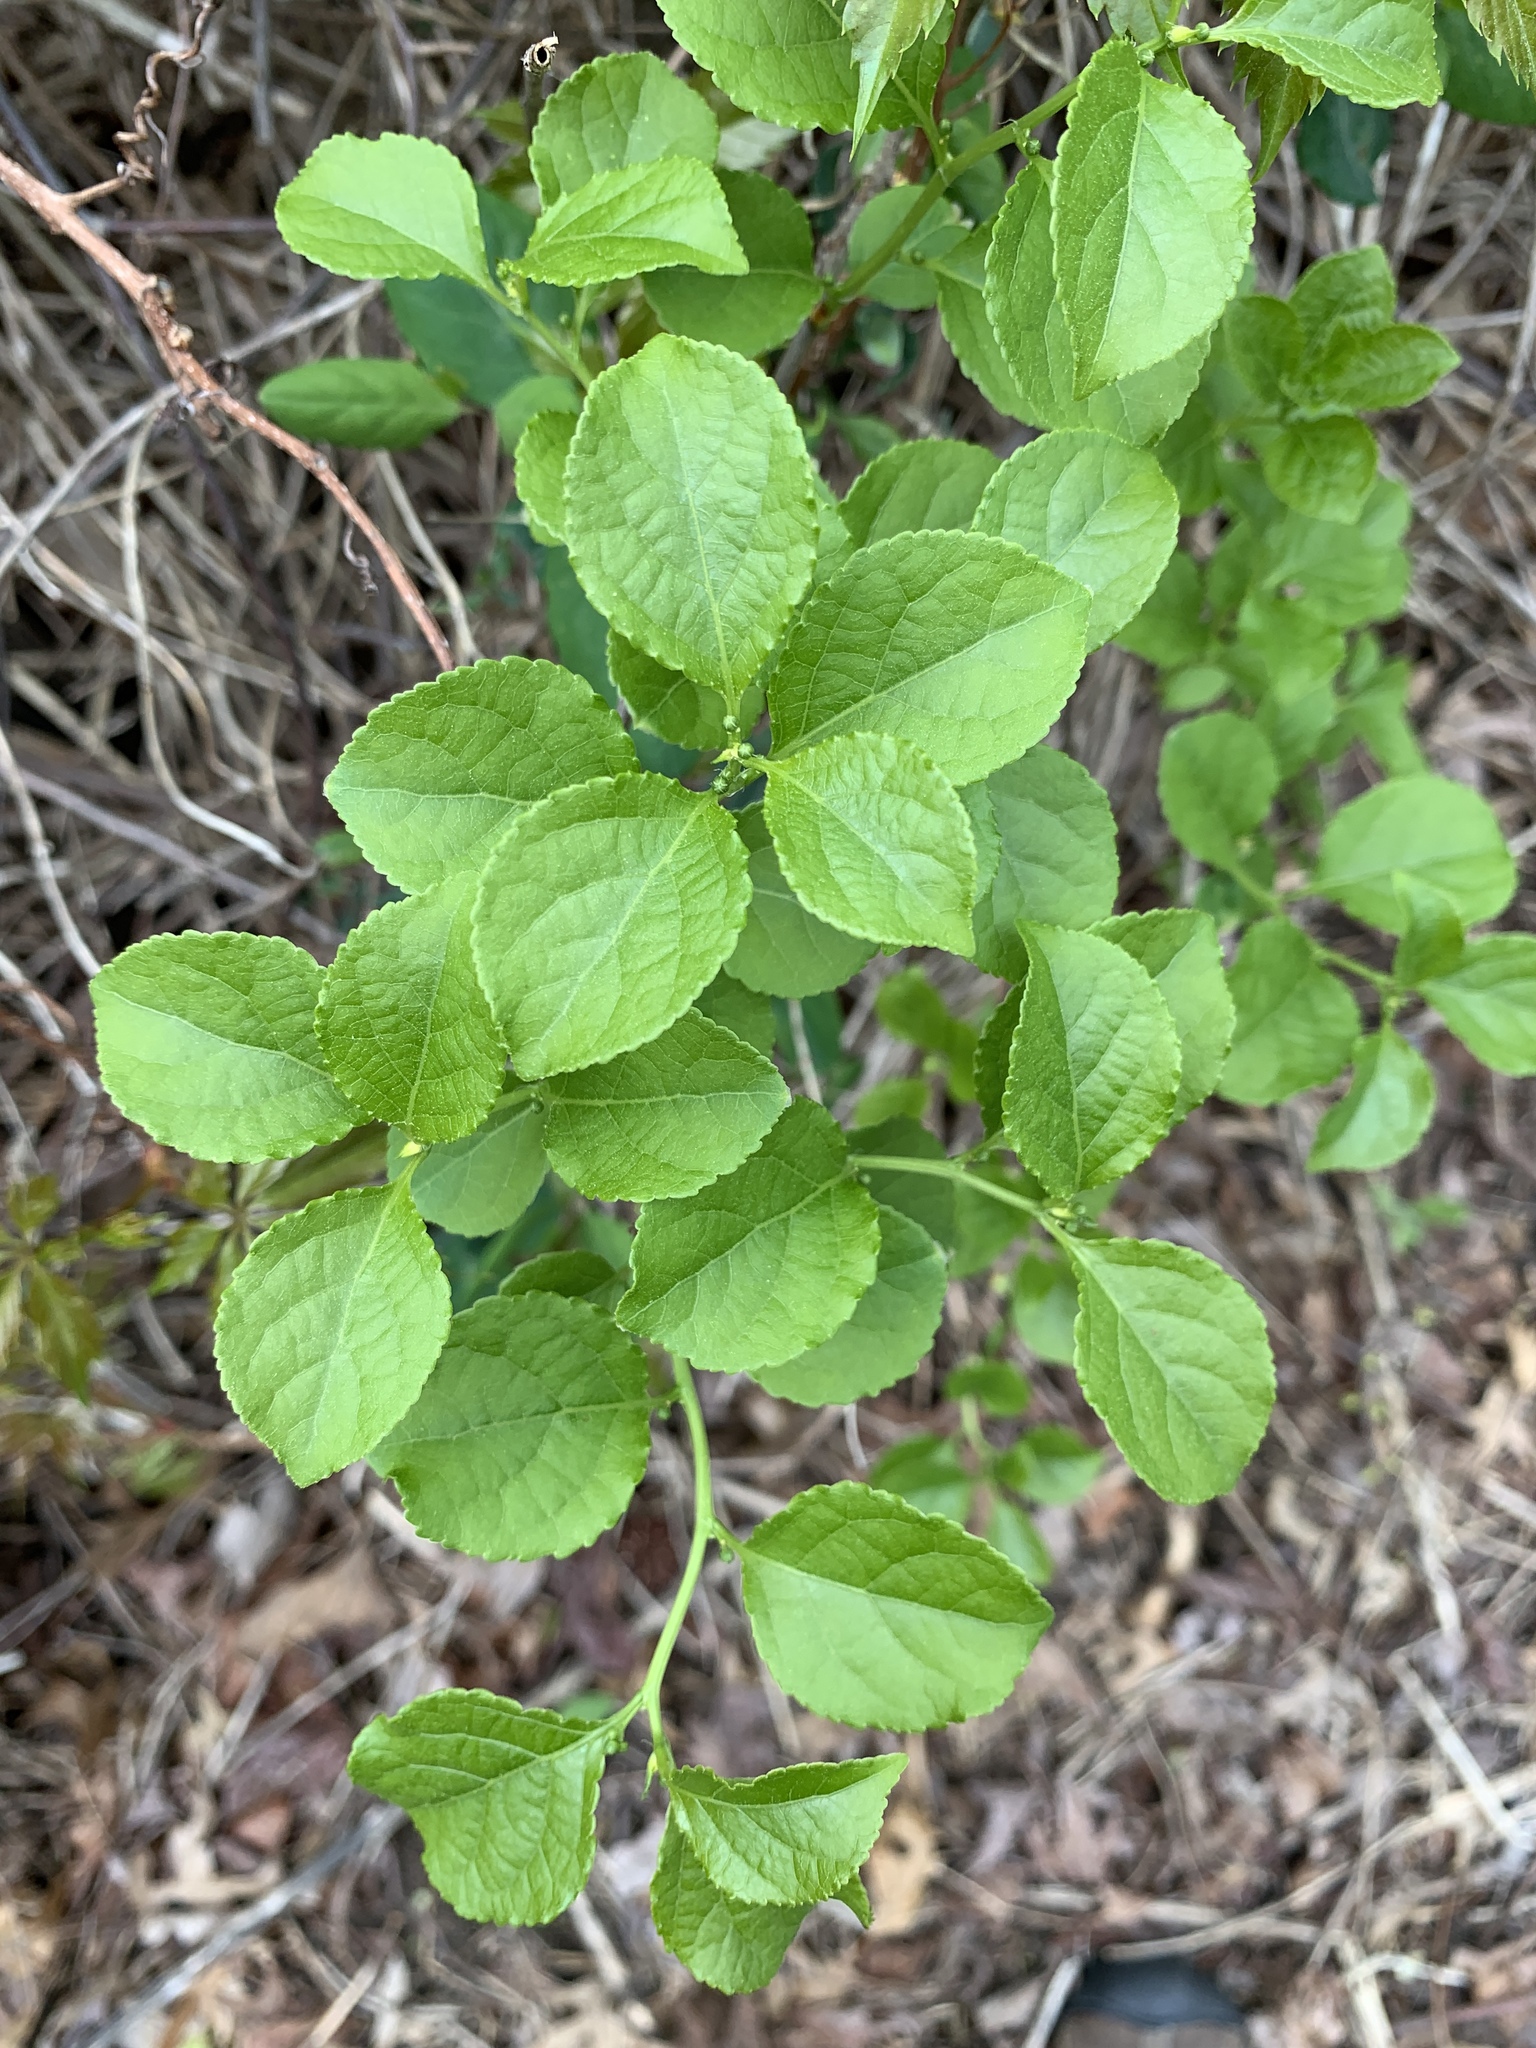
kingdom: Plantae
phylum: Tracheophyta
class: Magnoliopsida
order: Celastrales
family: Celastraceae
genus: Celastrus
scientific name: Celastrus orbiculatus
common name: Oriental bittersweet
